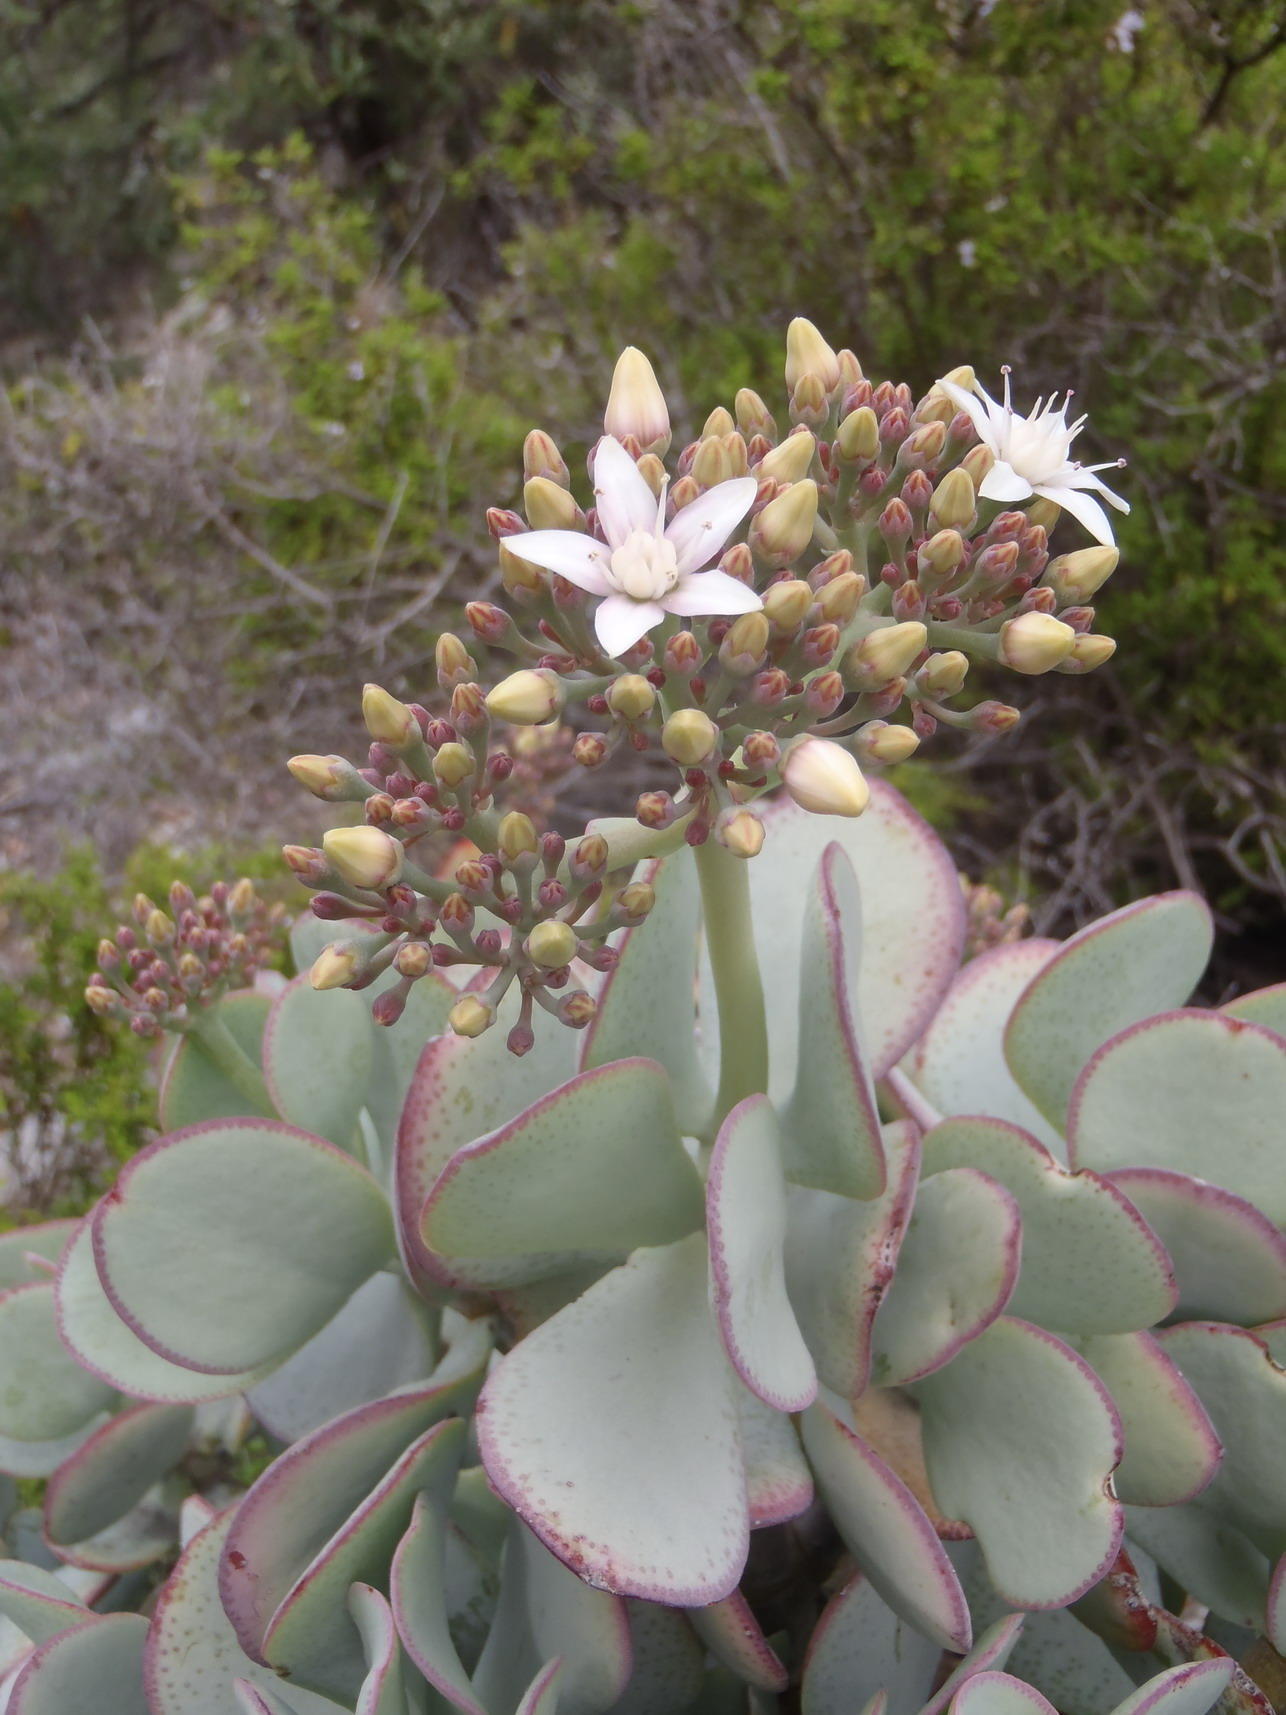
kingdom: Plantae
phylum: Tracheophyta
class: Magnoliopsida
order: Saxifragales
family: Crassulaceae
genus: Crassula
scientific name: Crassula arborescens
